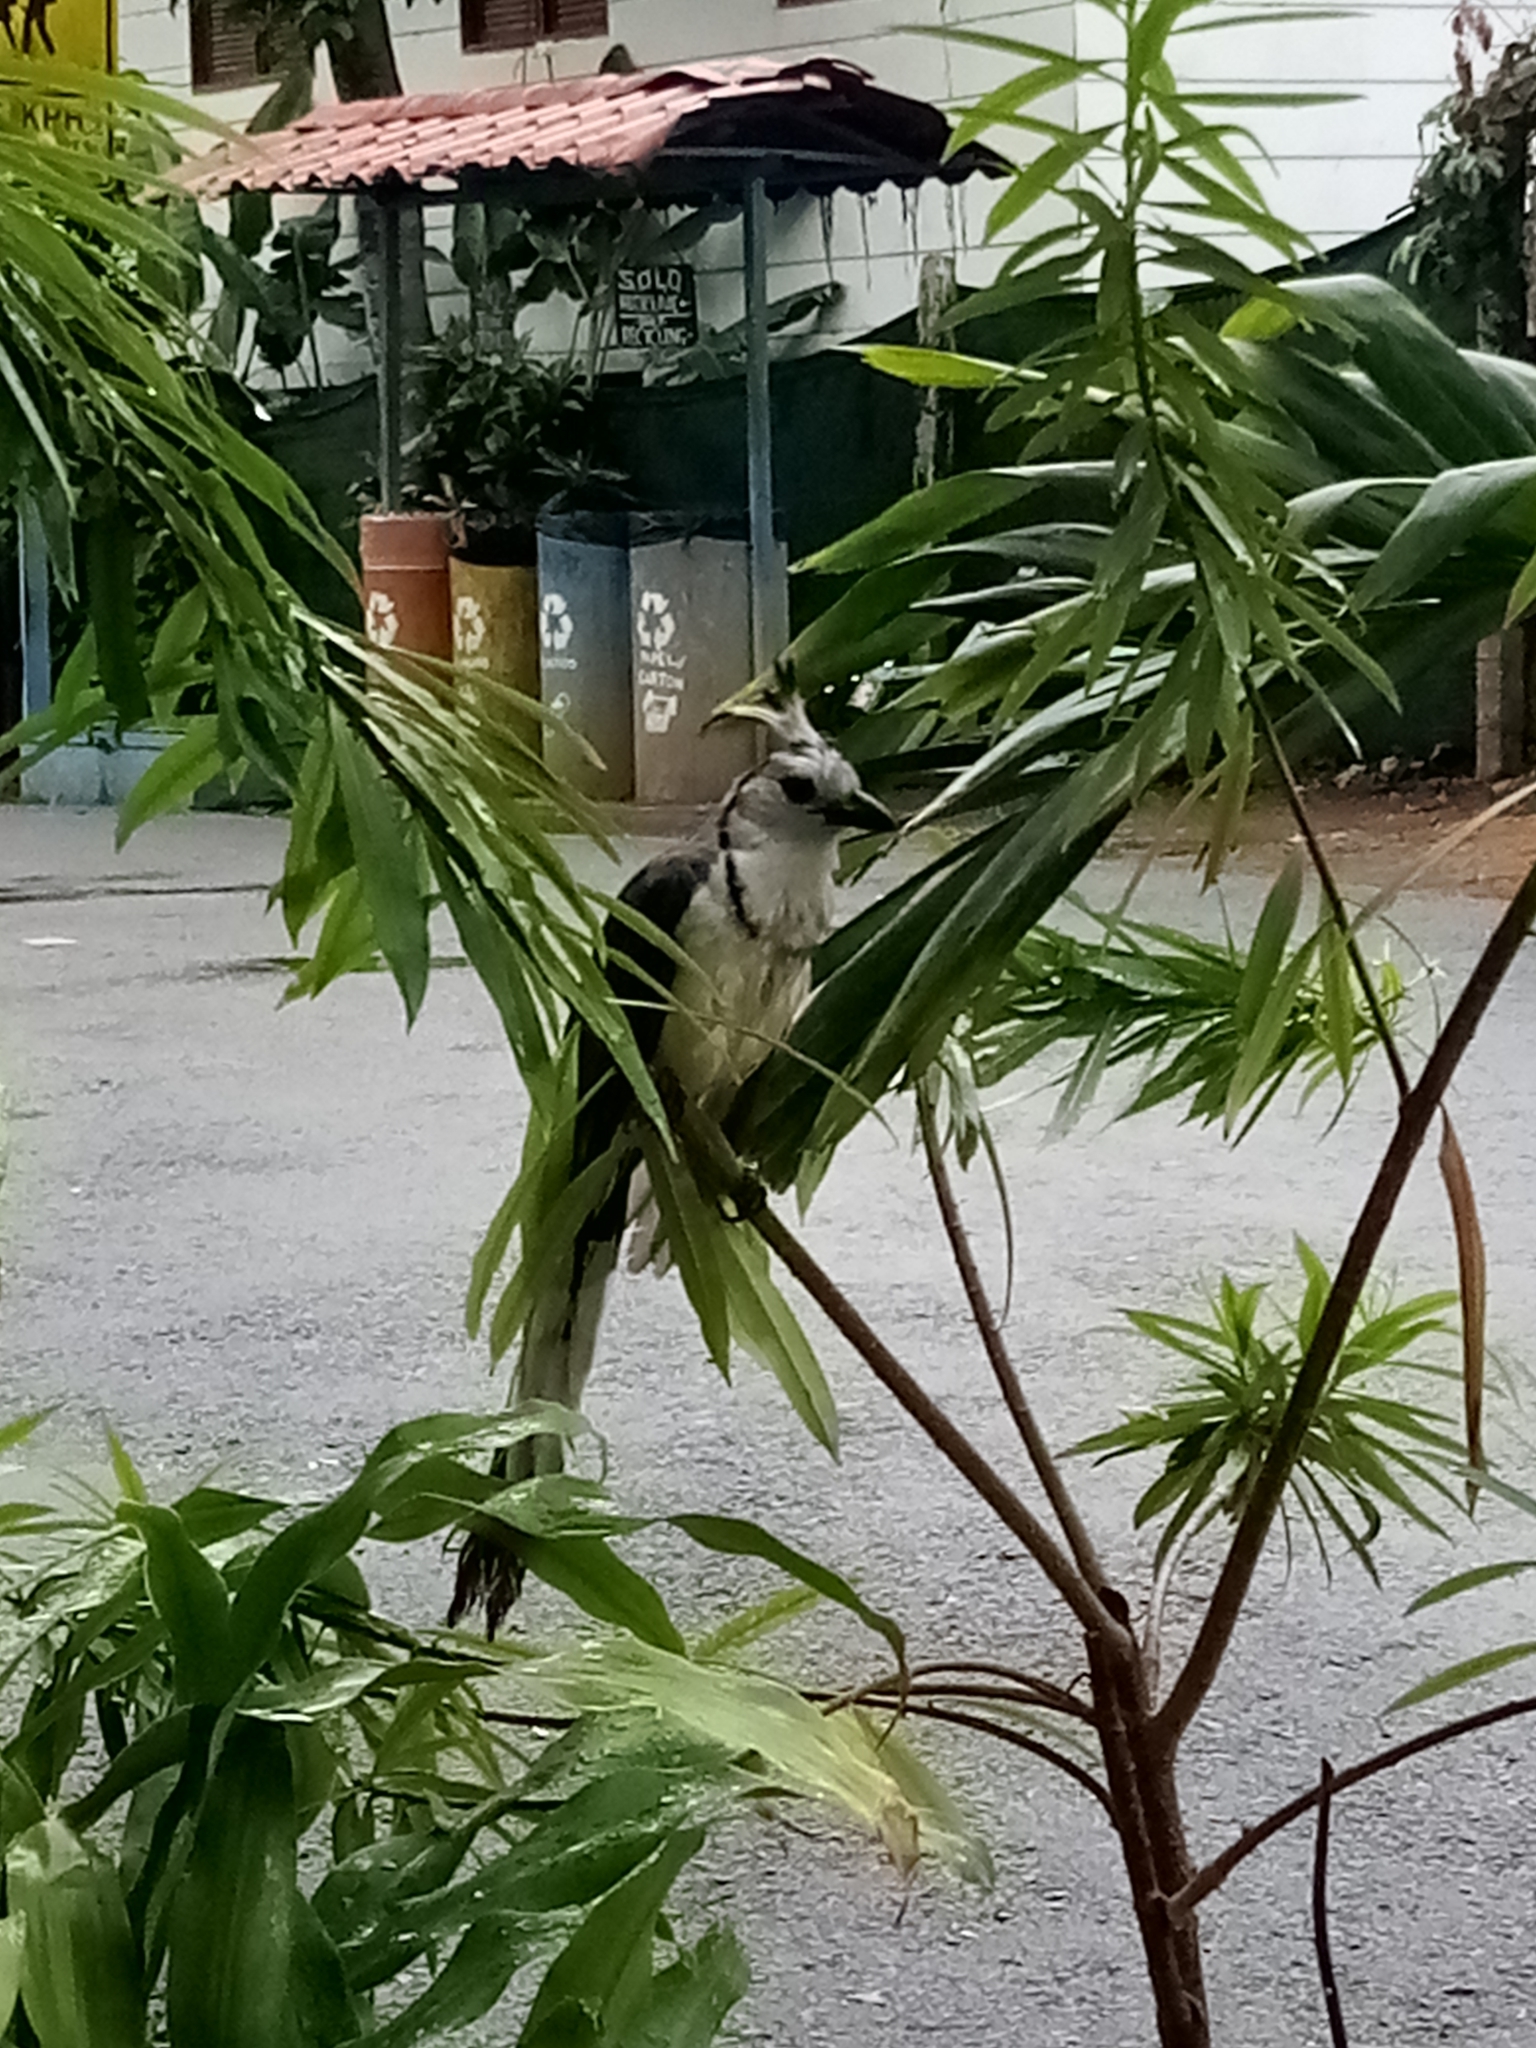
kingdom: Animalia
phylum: Chordata
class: Aves
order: Passeriformes
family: Corvidae
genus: Calocitta
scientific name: Calocitta formosa
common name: White-throated magpie-jay
